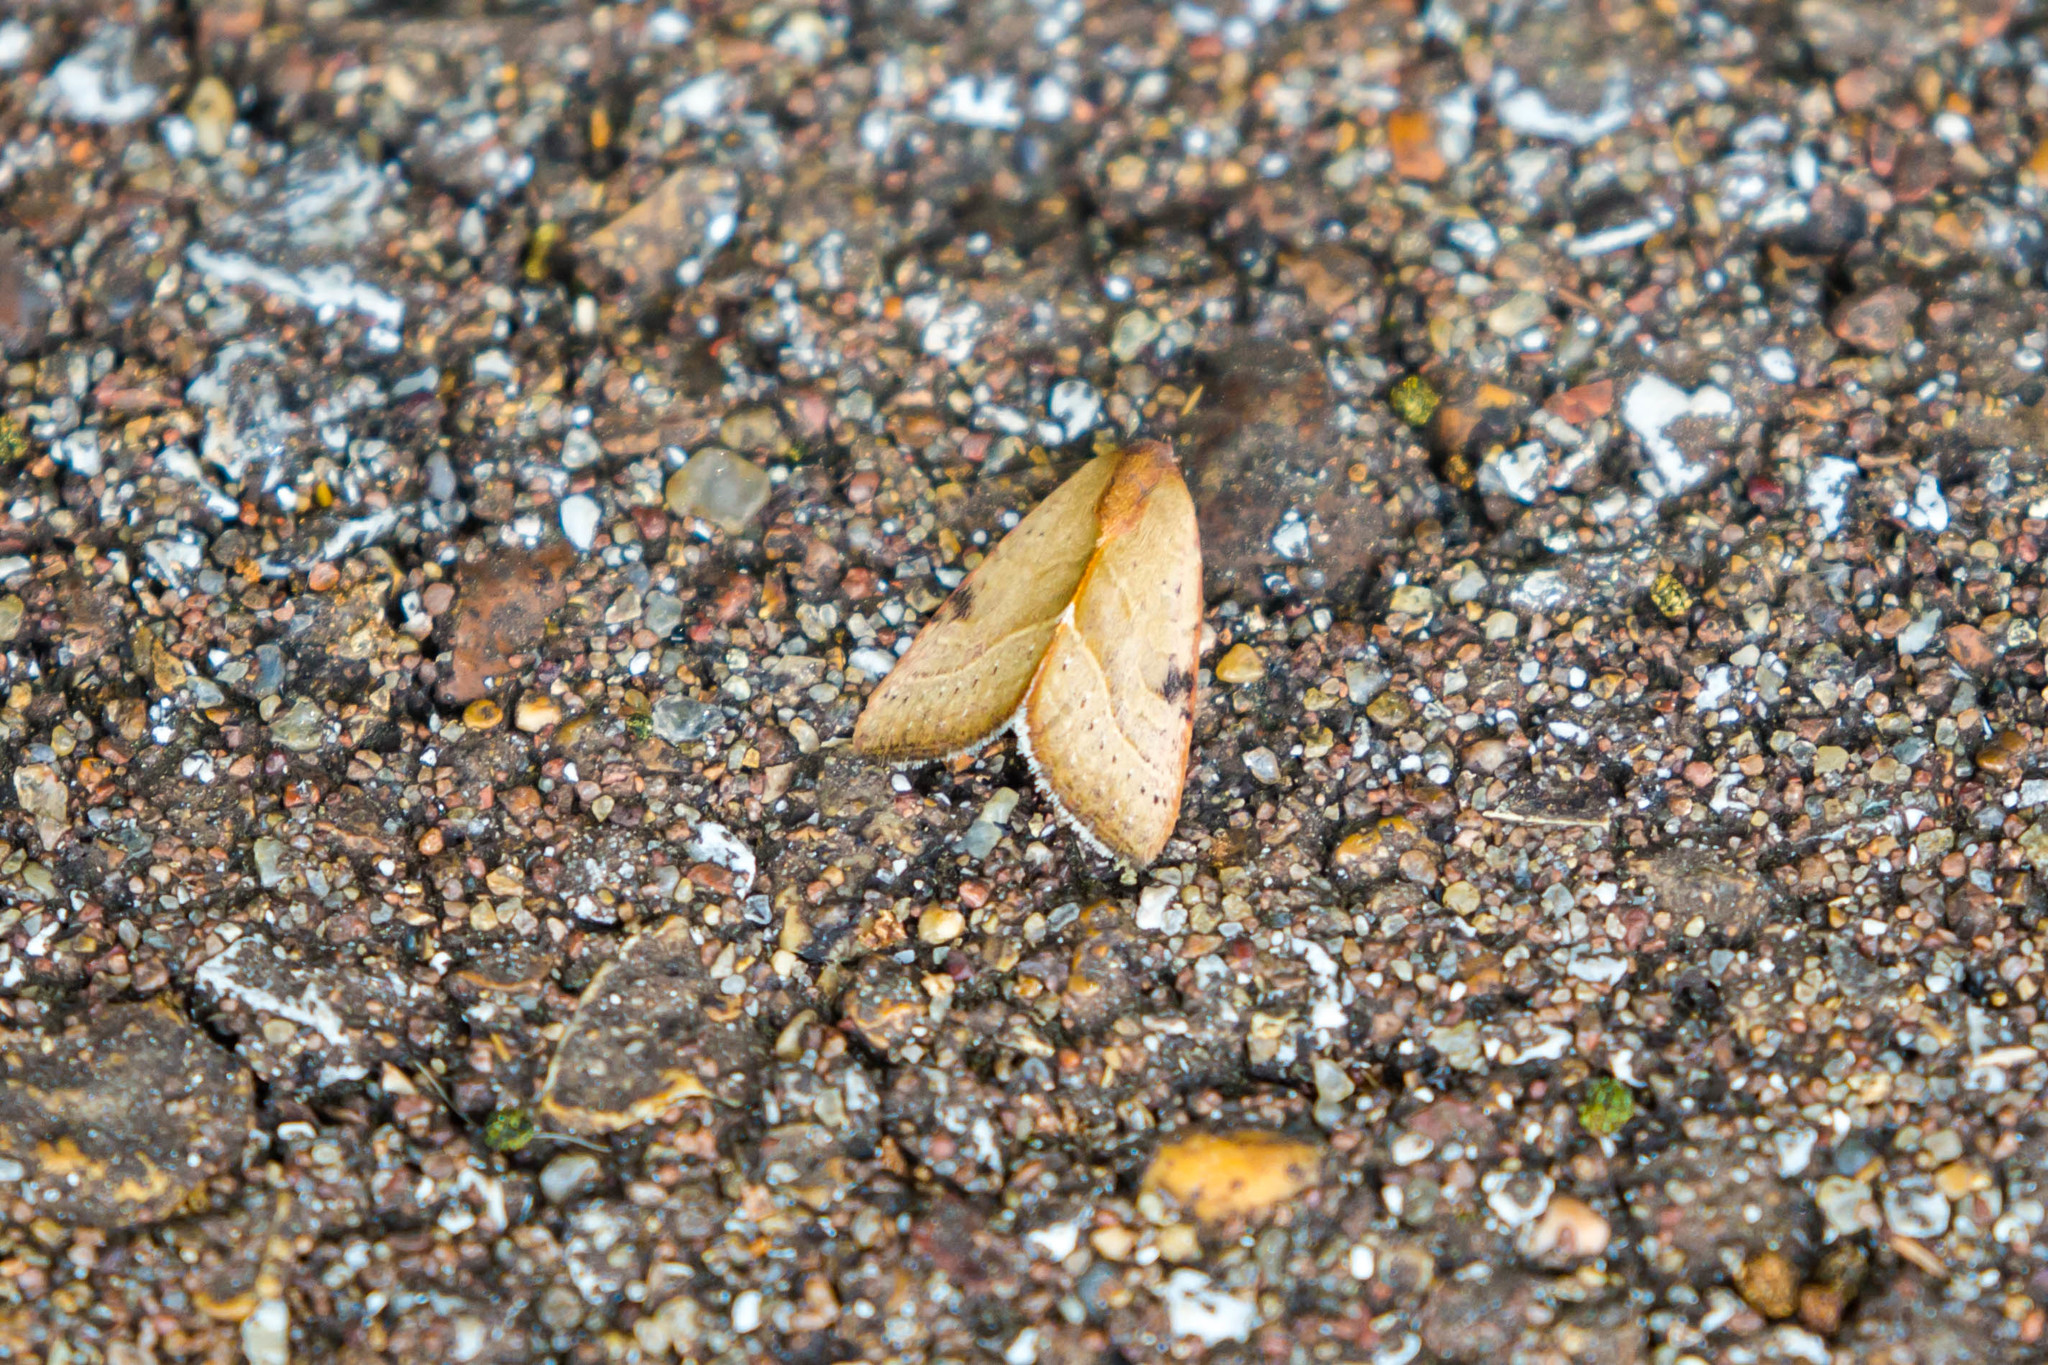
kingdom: Animalia
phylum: Arthropoda
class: Insecta
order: Lepidoptera
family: Noctuidae
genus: Galgula
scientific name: Galgula partita
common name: Wedgeling
